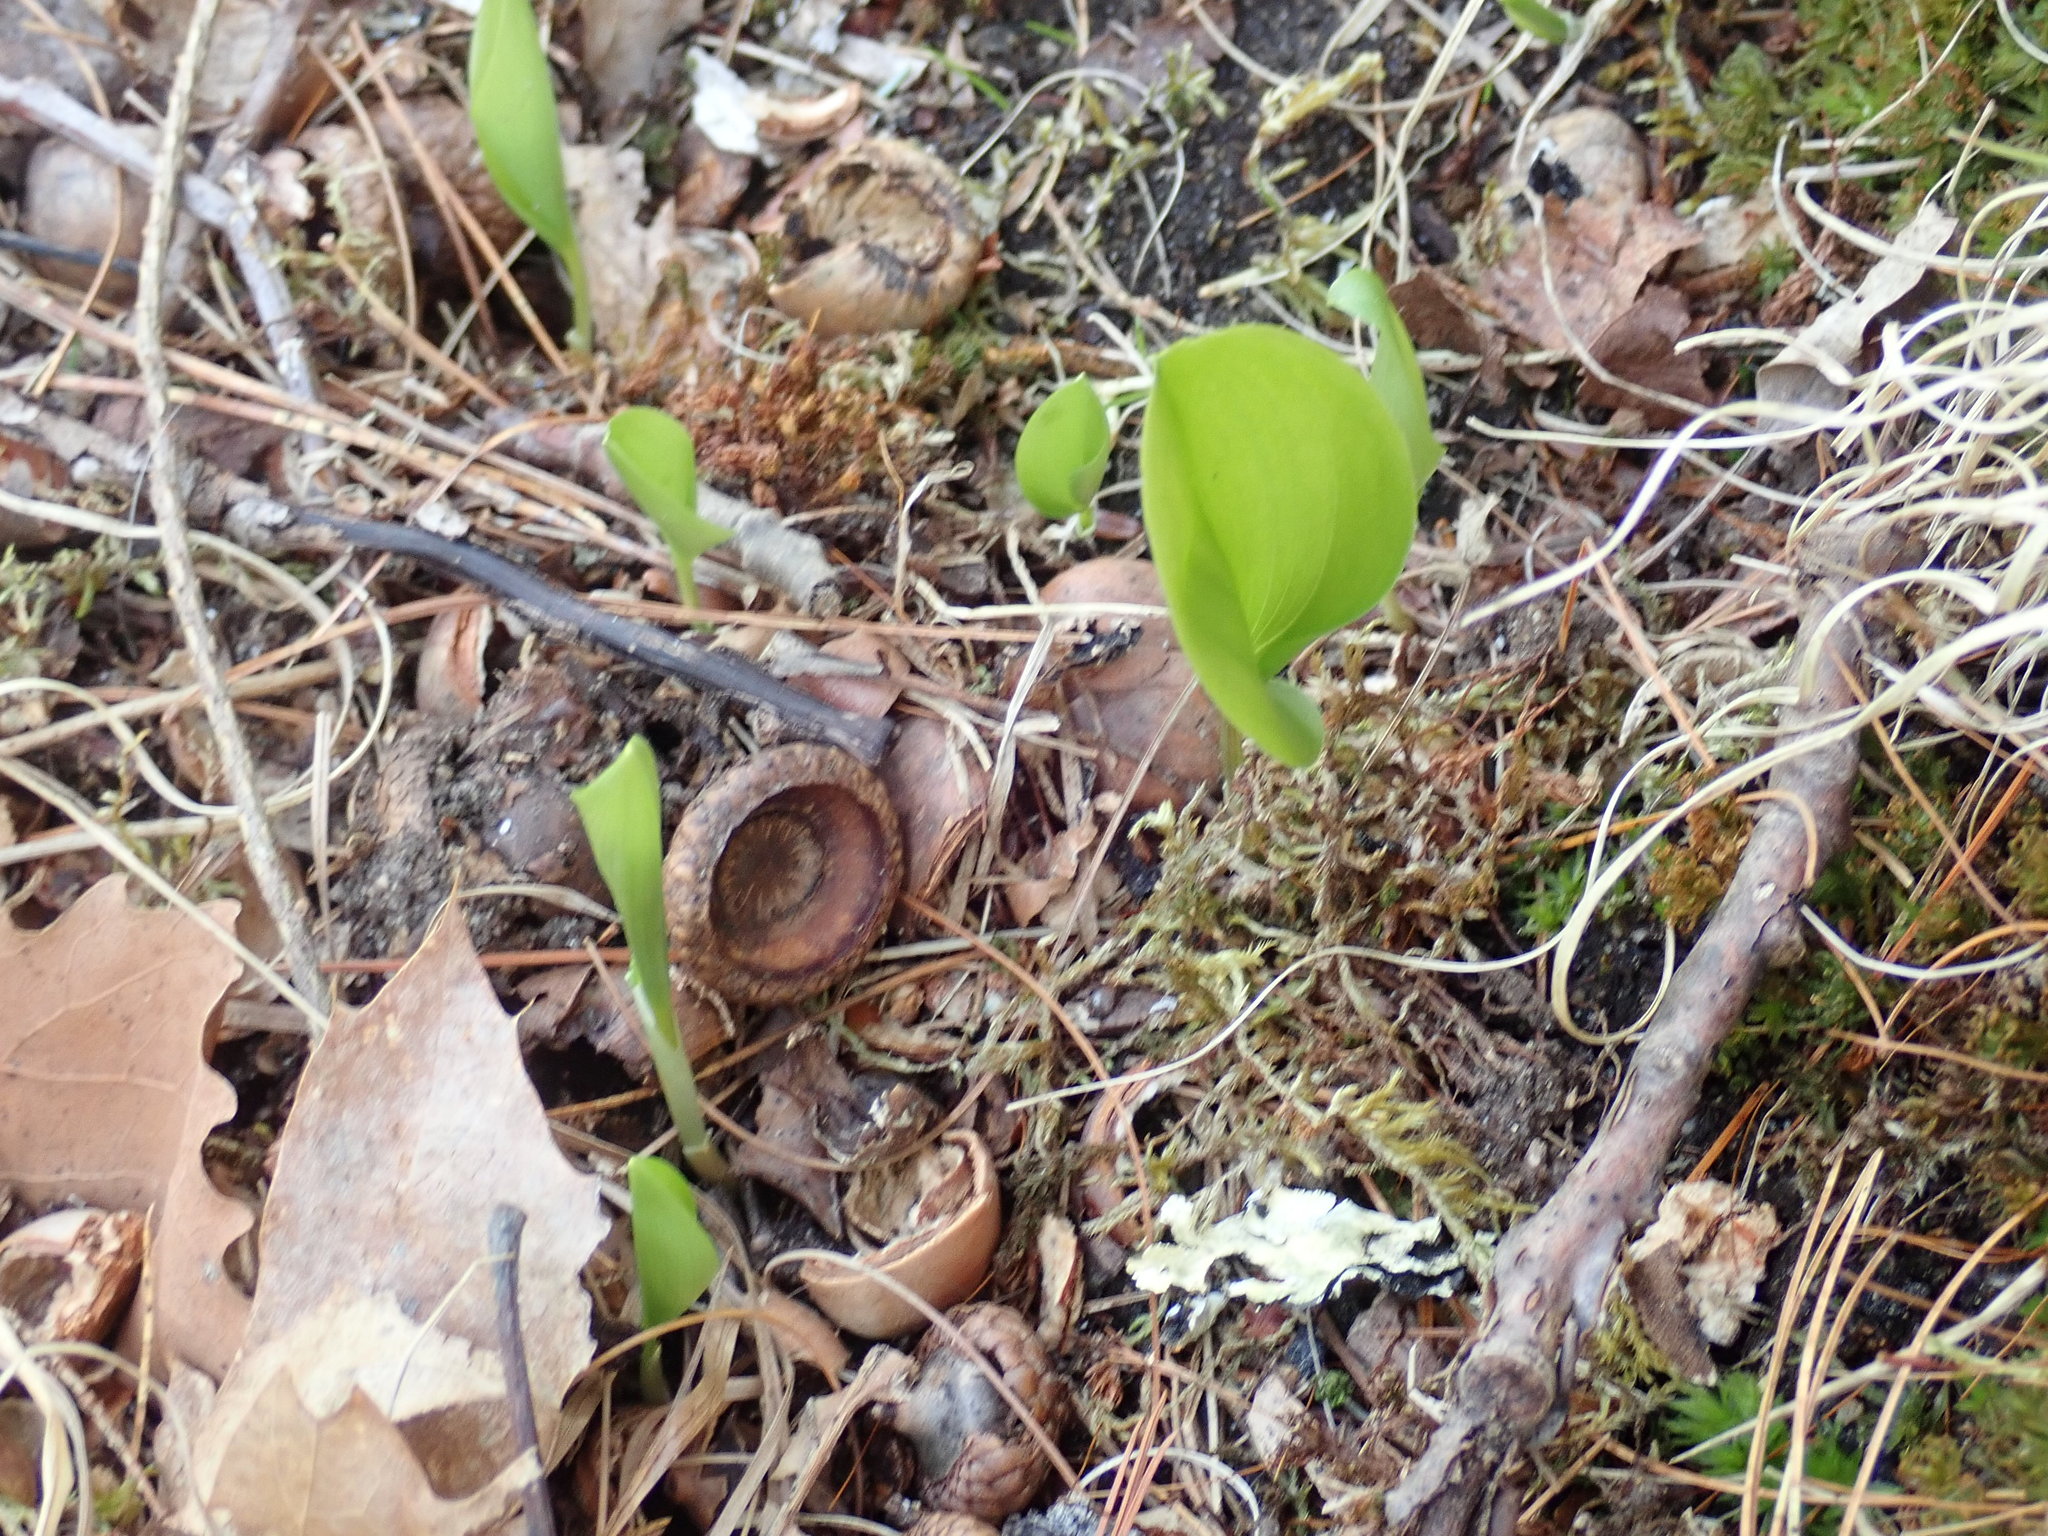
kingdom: Plantae
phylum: Tracheophyta
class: Liliopsida
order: Asparagales
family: Asparagaceae
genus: Maianthemum
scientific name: Maianthemum canadense
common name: False lily-of-the-valley
